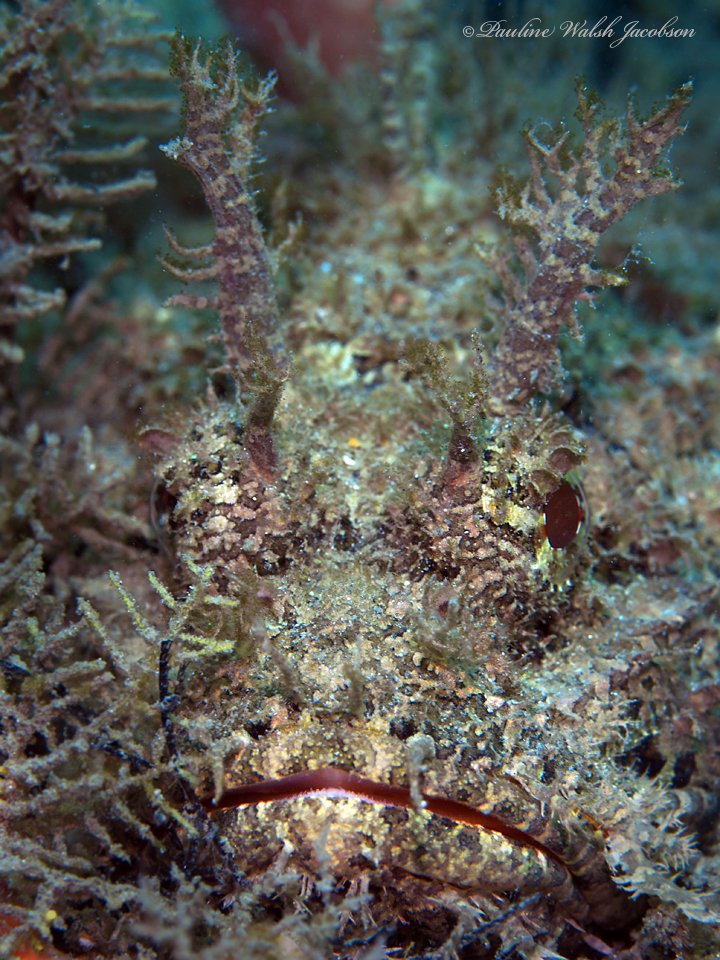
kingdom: Animalia
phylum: Chordata
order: Scorpaeniformes
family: Scorpaenidae
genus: Scorpaena
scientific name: Scorpaena plumieri
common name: Spotted scorpionfish
